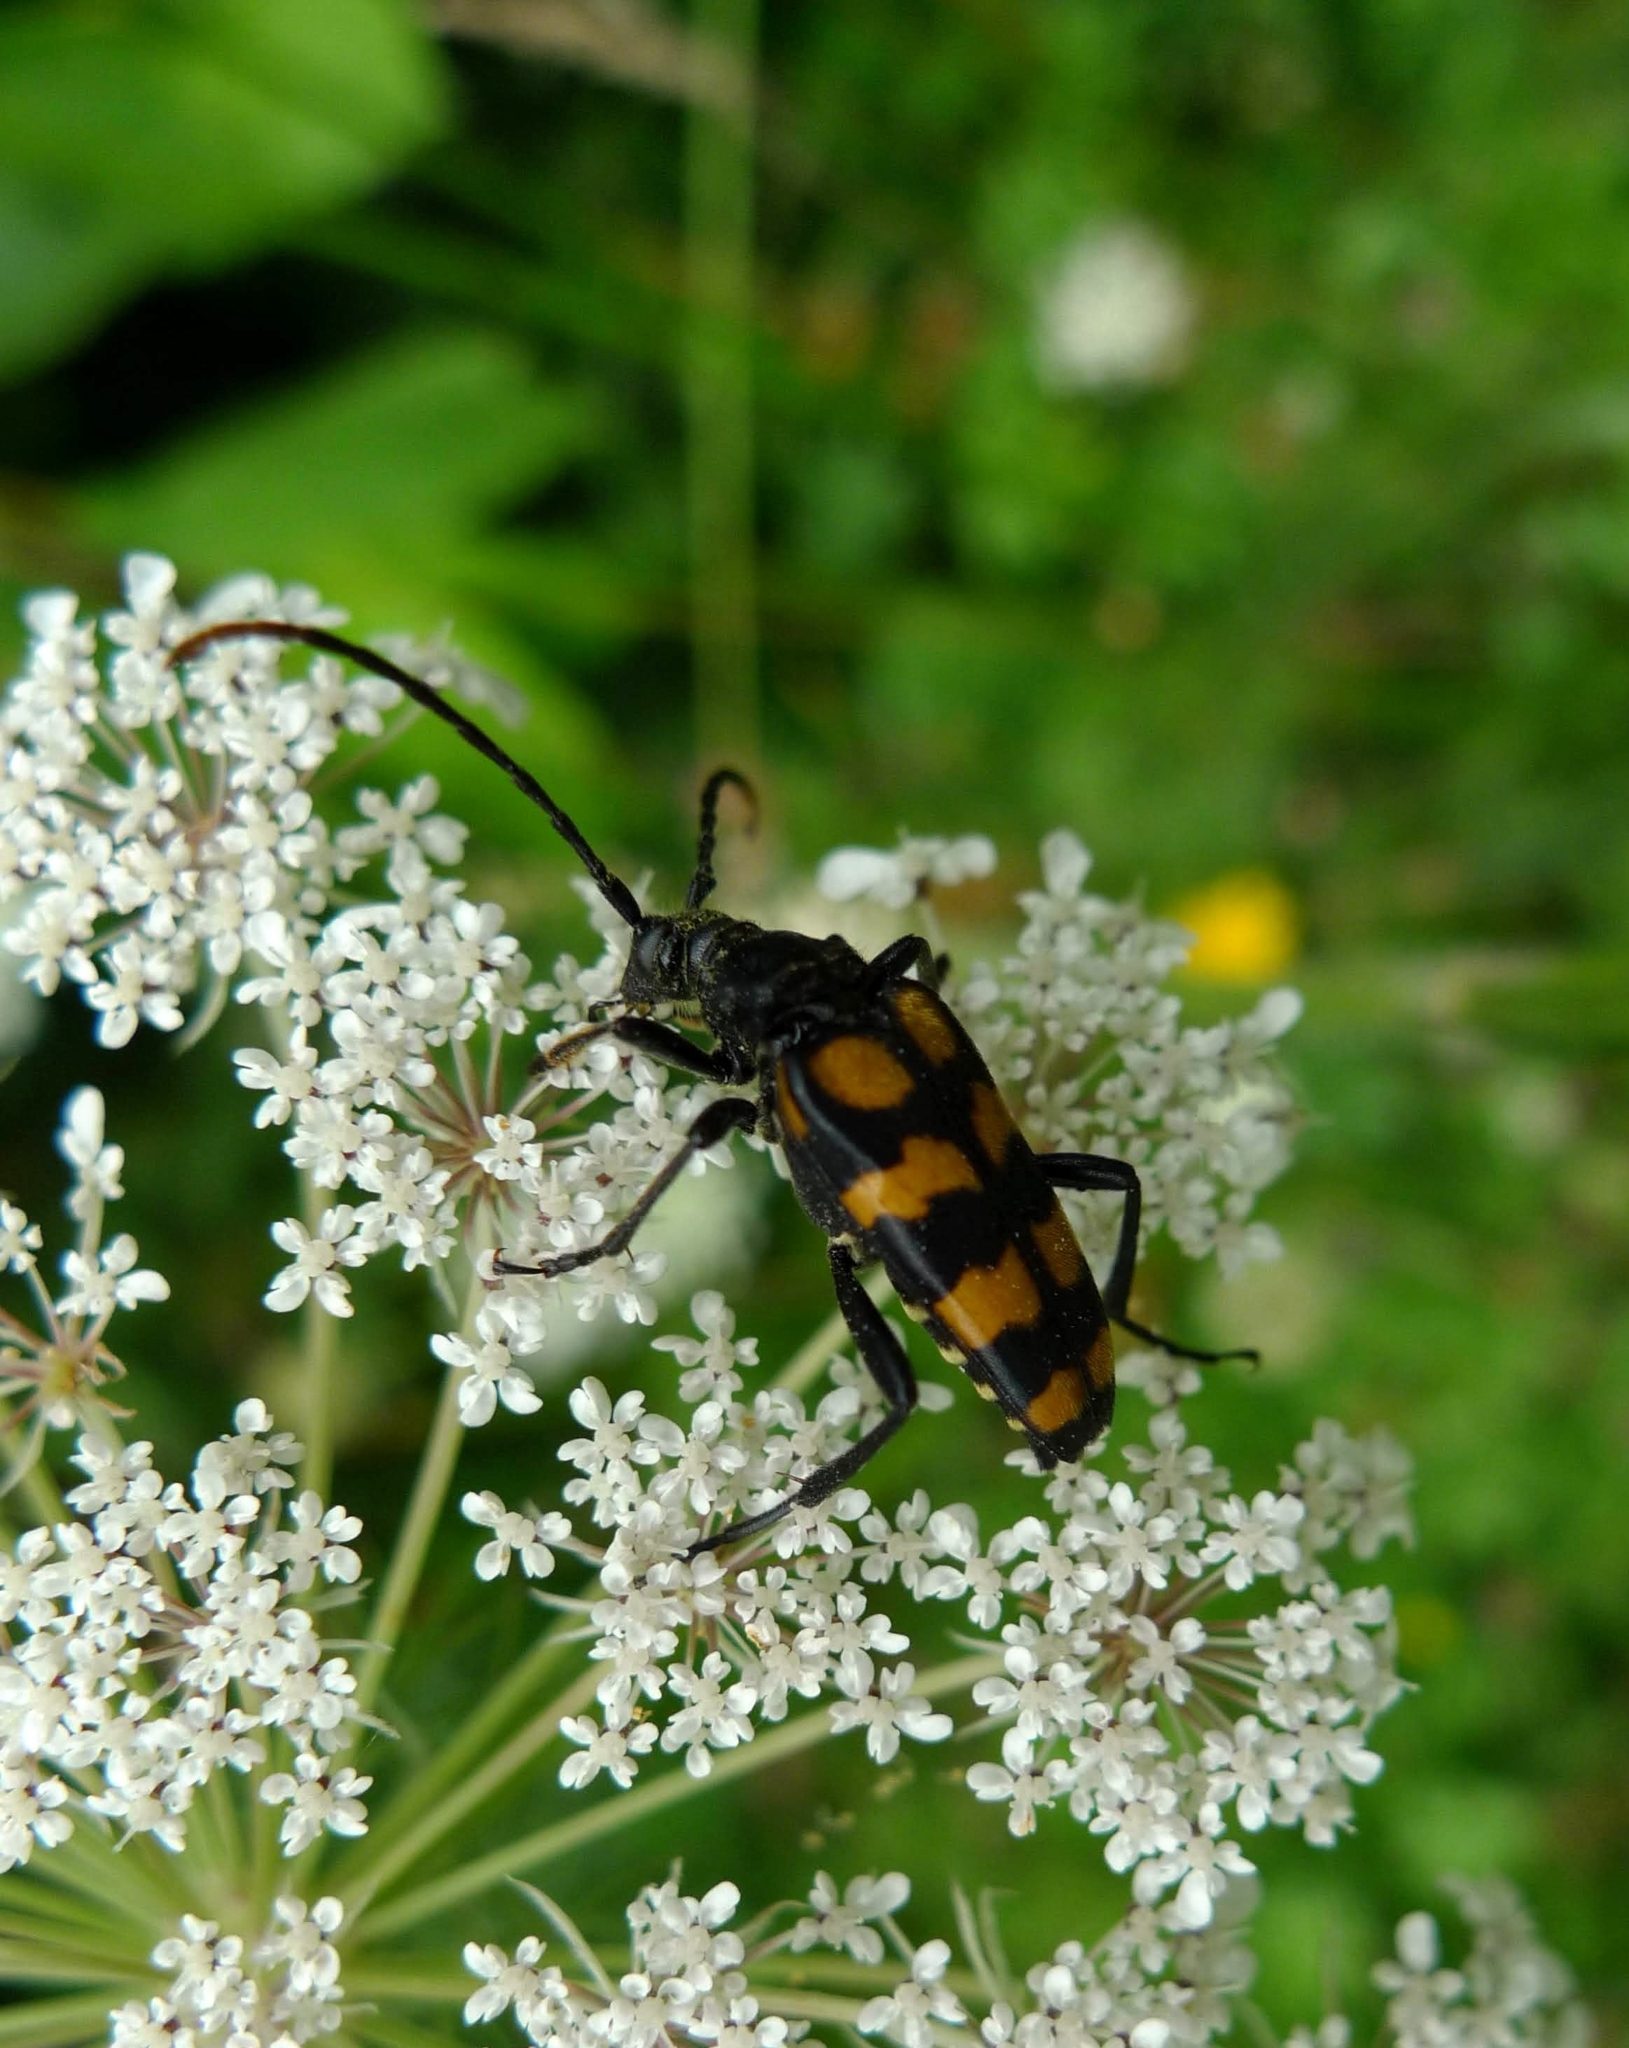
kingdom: Animalia
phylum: Arthropoda
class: Insecta
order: Coleoptera
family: Cerambycidae
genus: Leptura
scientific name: Leptura quadrifasciata
